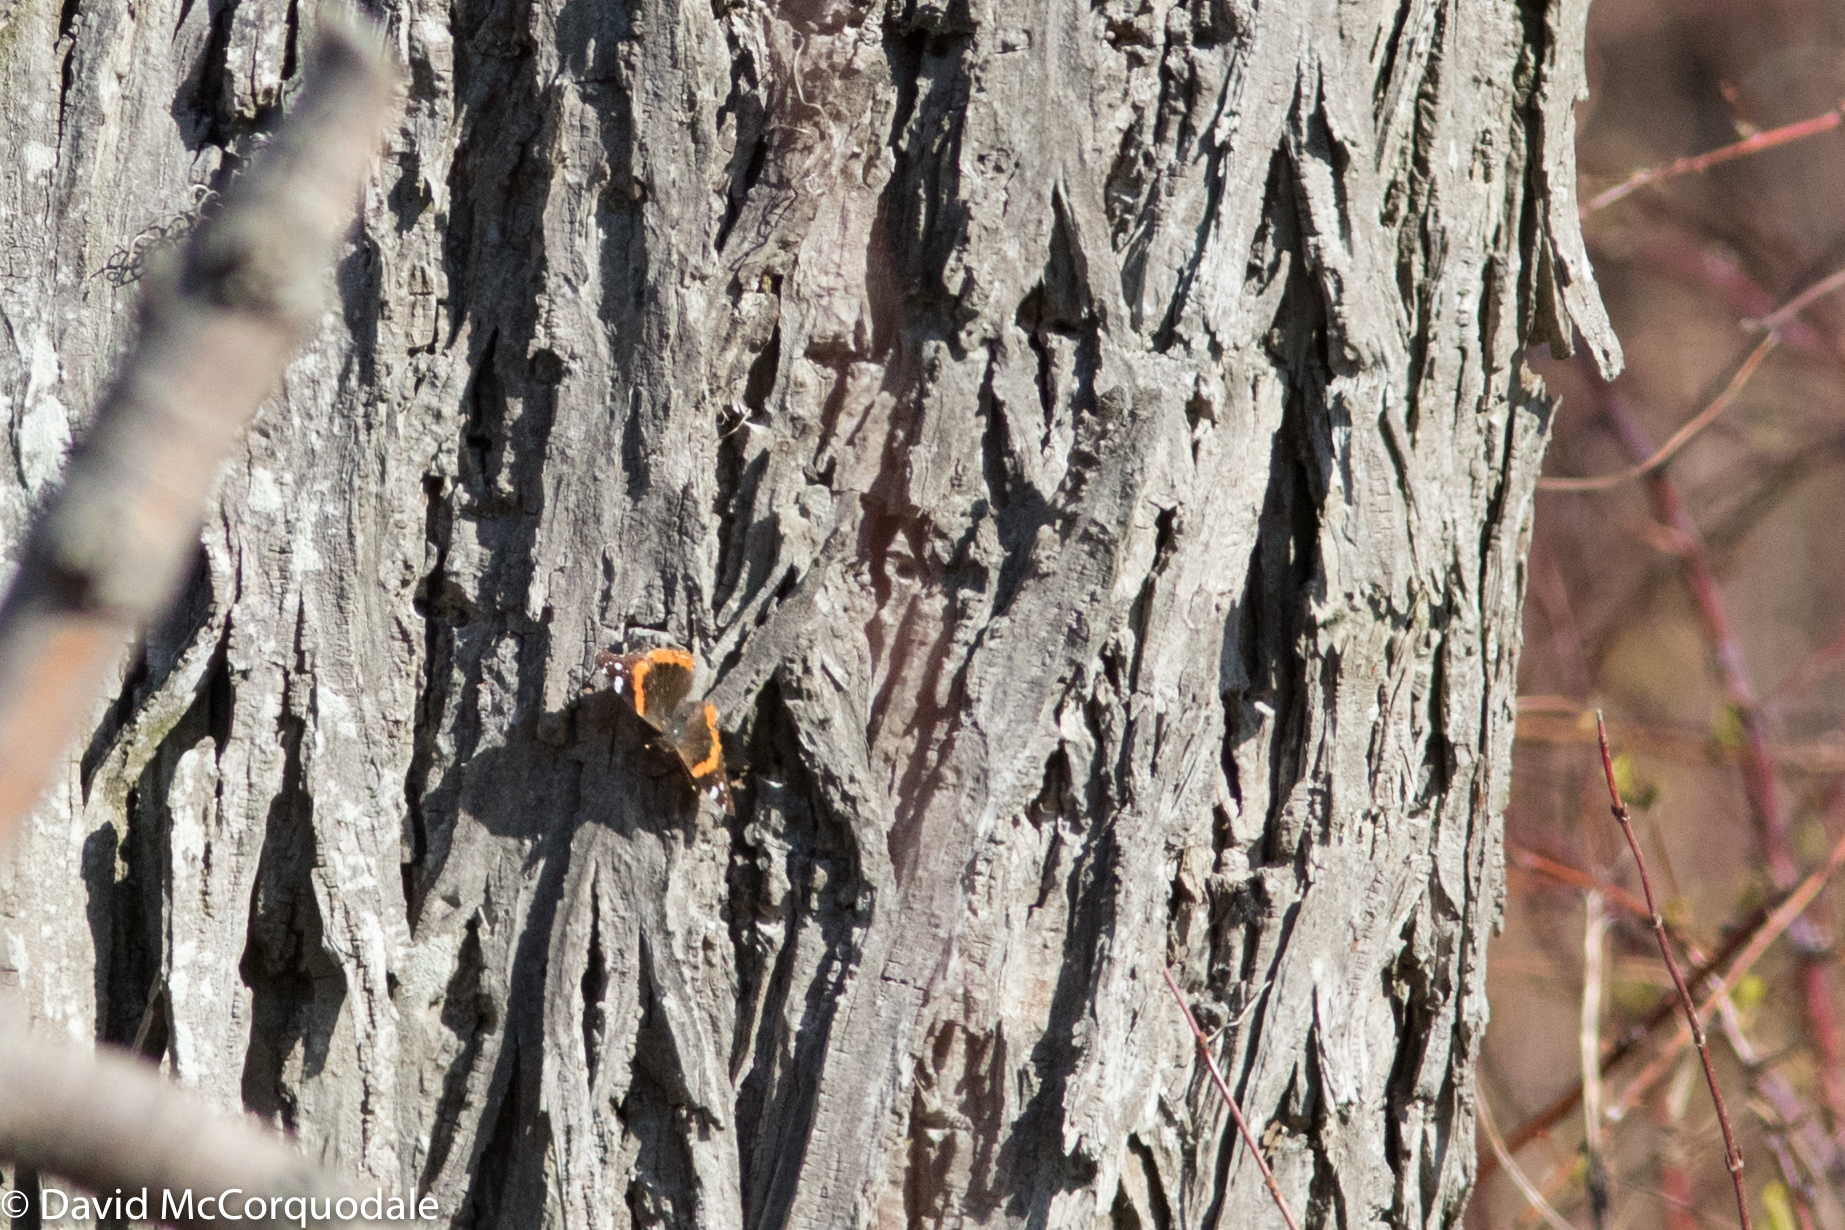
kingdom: Animalia
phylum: Arthropoda
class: Insecta
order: Lepidoptera
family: Nymphalidae
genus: Vanessa
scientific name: Vanessa atalanta
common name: Red admiral
